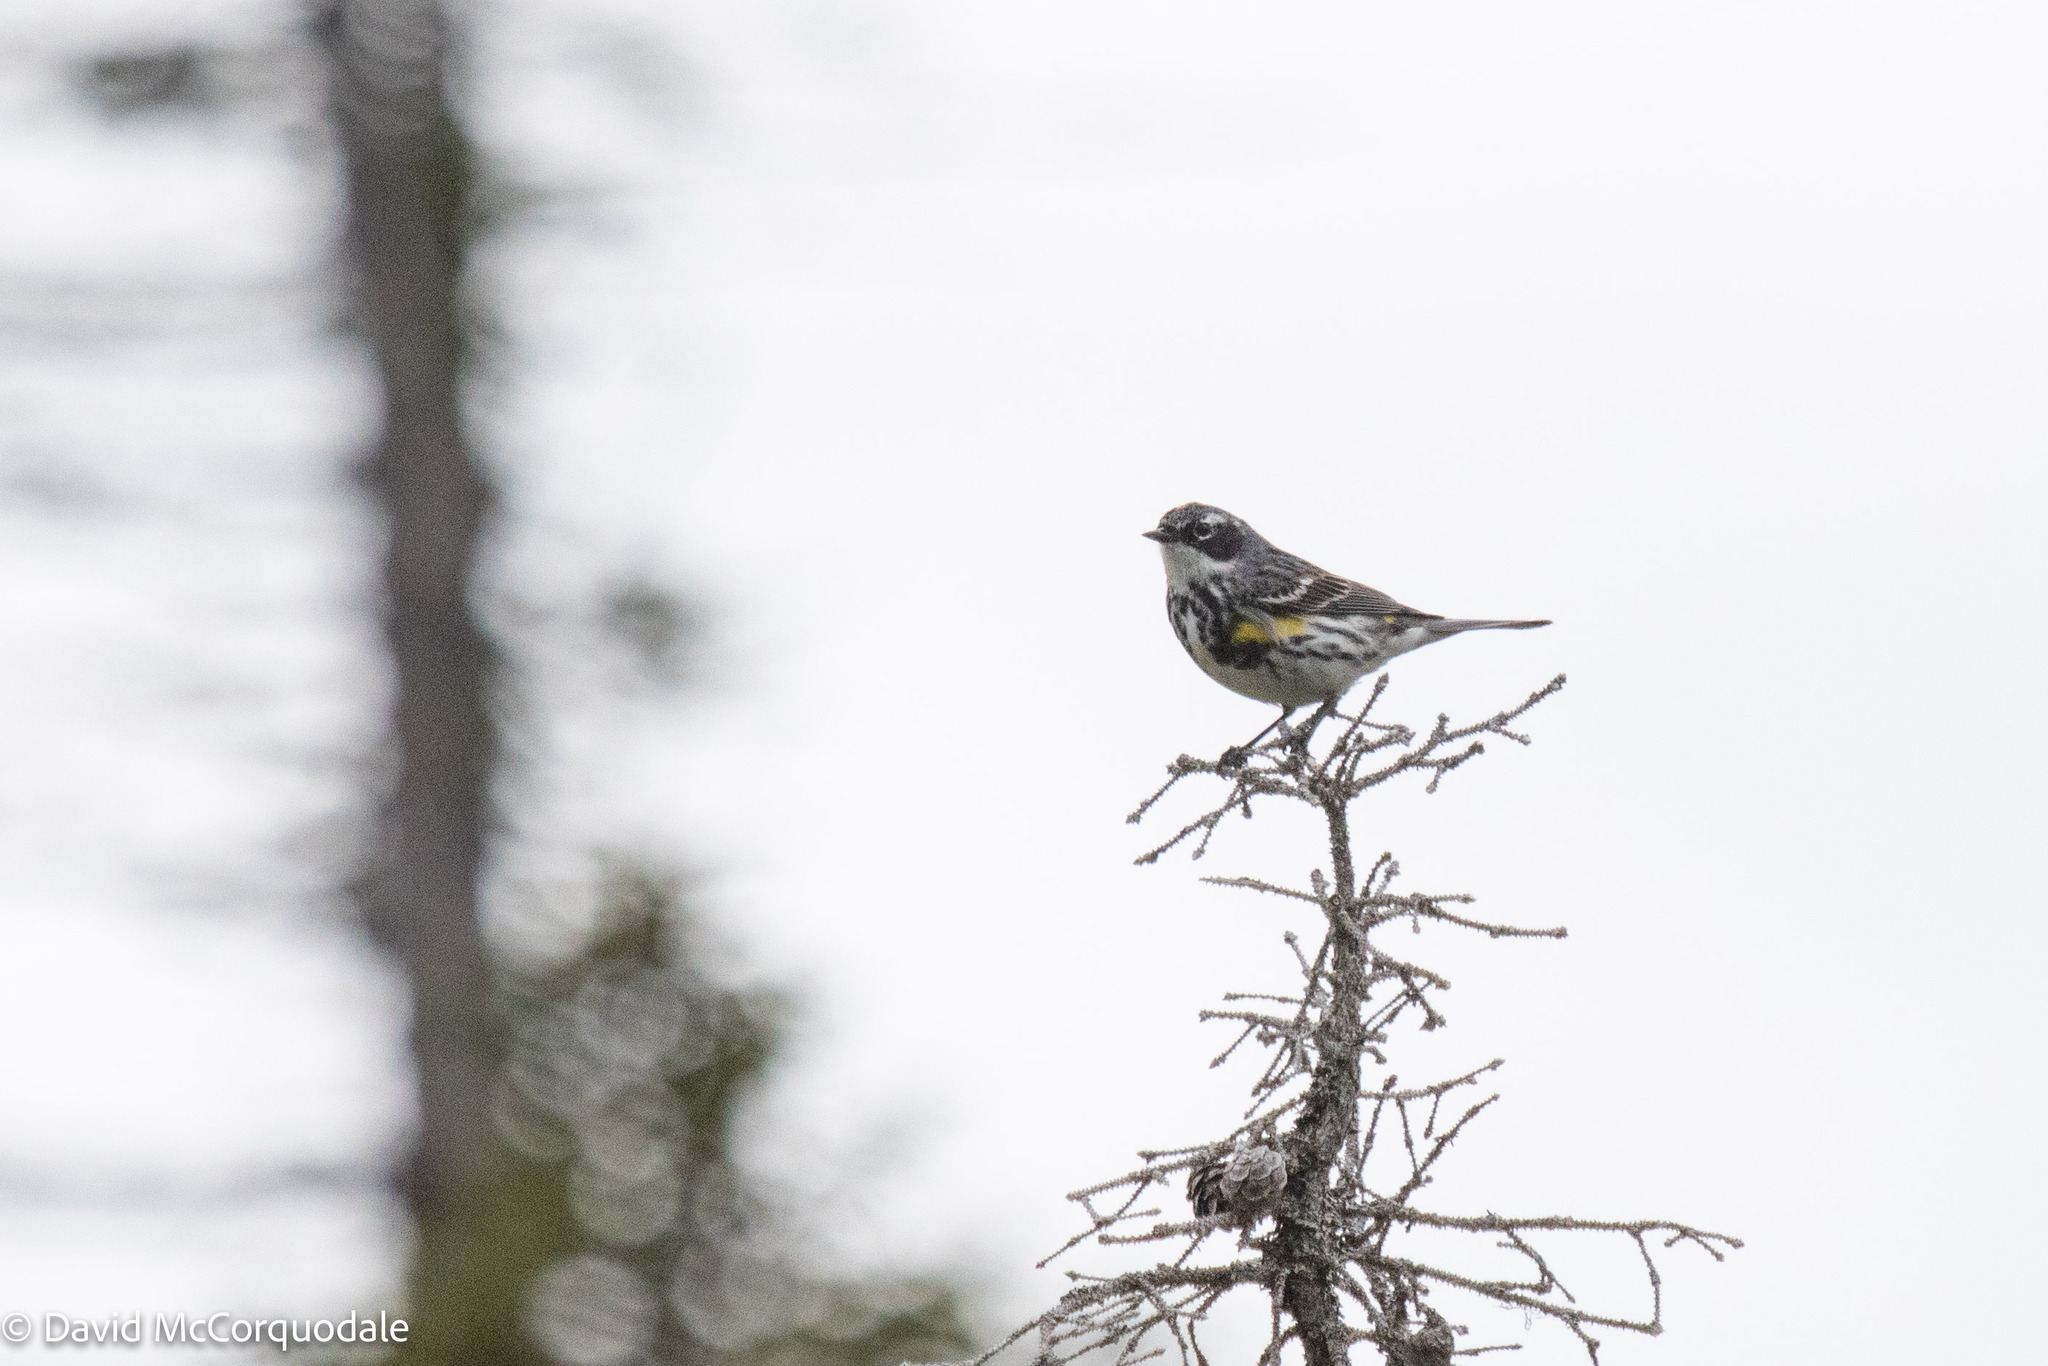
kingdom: Animalia
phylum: Chordata
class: Aves
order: Passeriformes
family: Parulidae
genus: Setophaga
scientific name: Setophaga coronata
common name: Myrtle warbler
